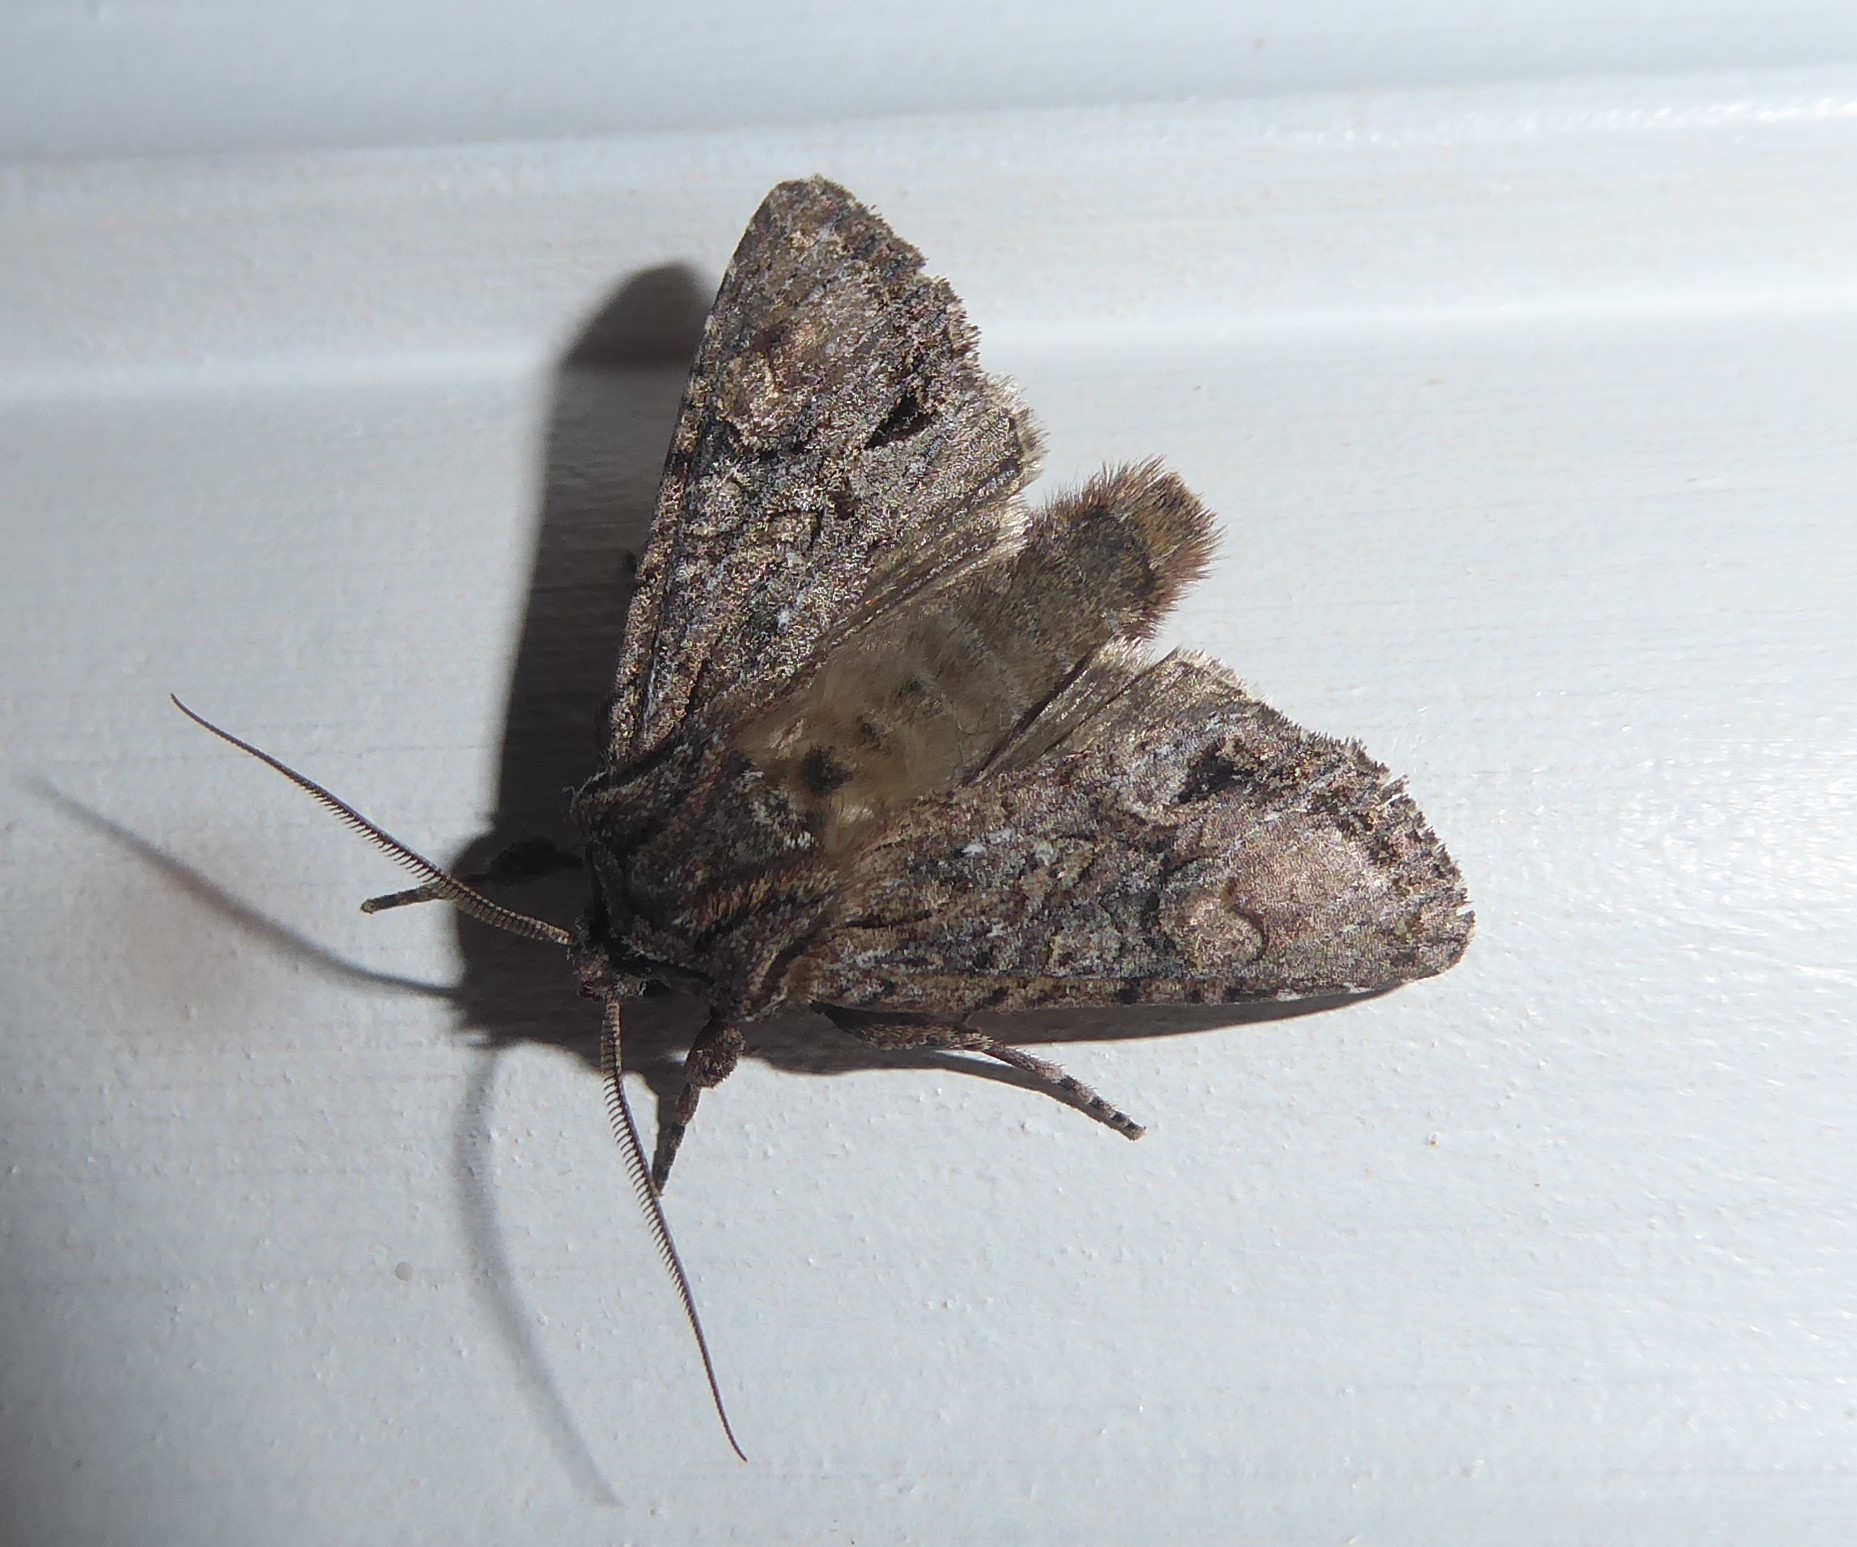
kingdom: Animalia
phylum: Arthropoda
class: Insecta
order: Lepidoptera
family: Noctuidae
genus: Ichneutica
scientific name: Ichneutica
